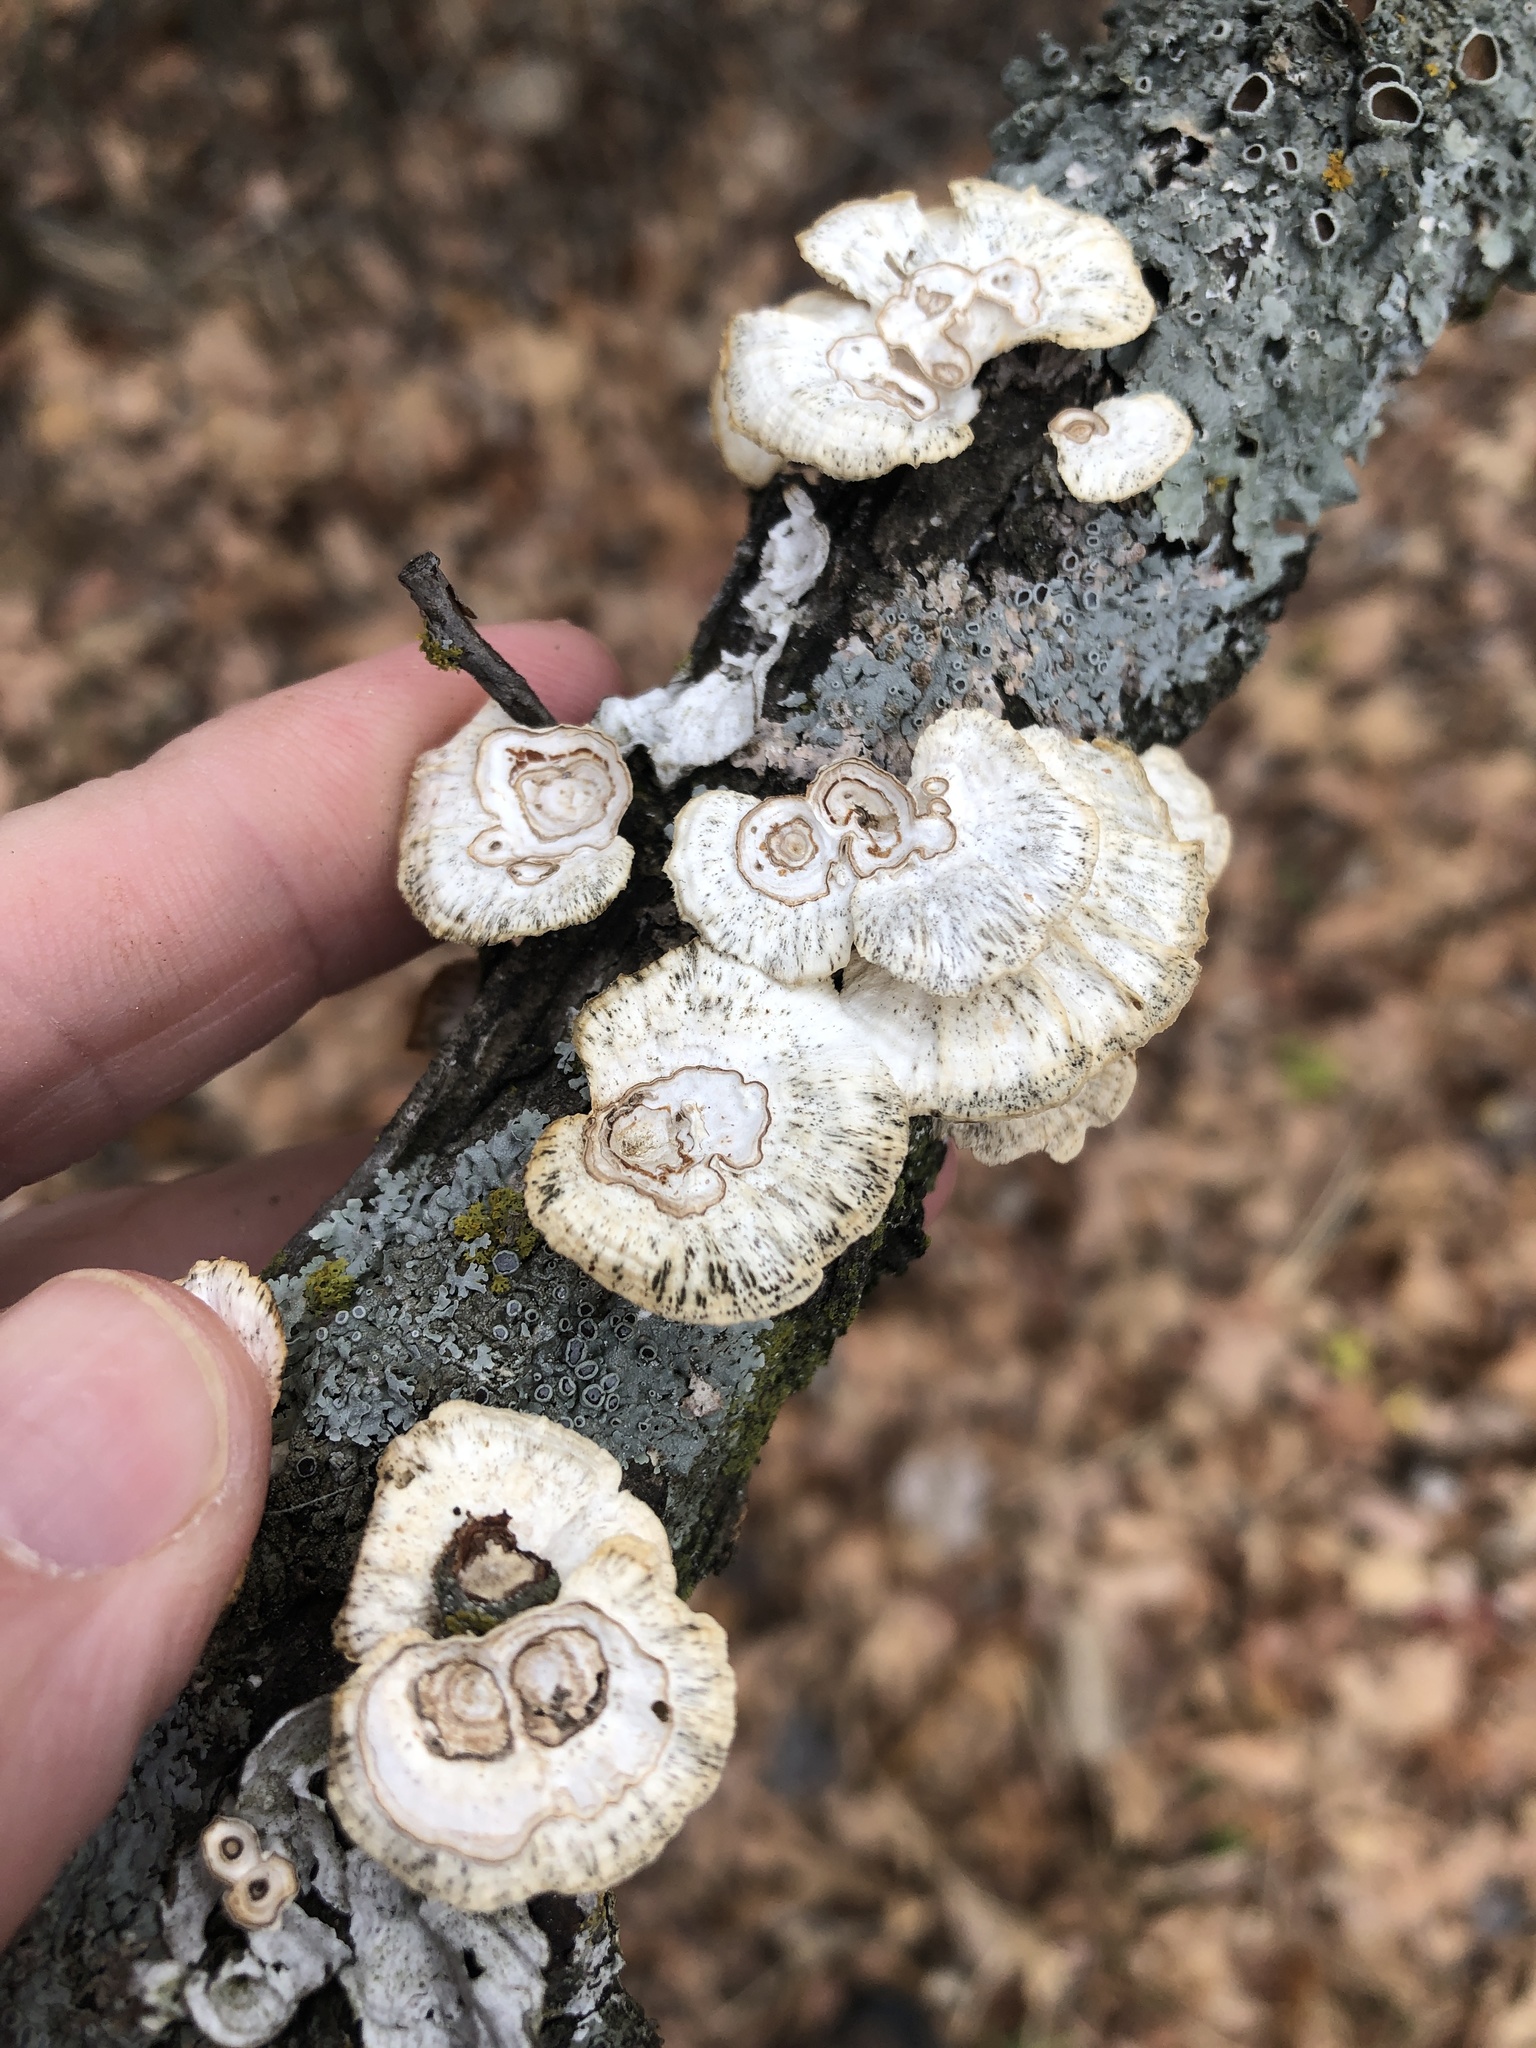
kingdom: Fungi
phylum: Basidiomycota
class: Agaricomycetes
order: Polyporales
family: Polyporaceae
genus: Poronidulus
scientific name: Poronidulus conchifer
